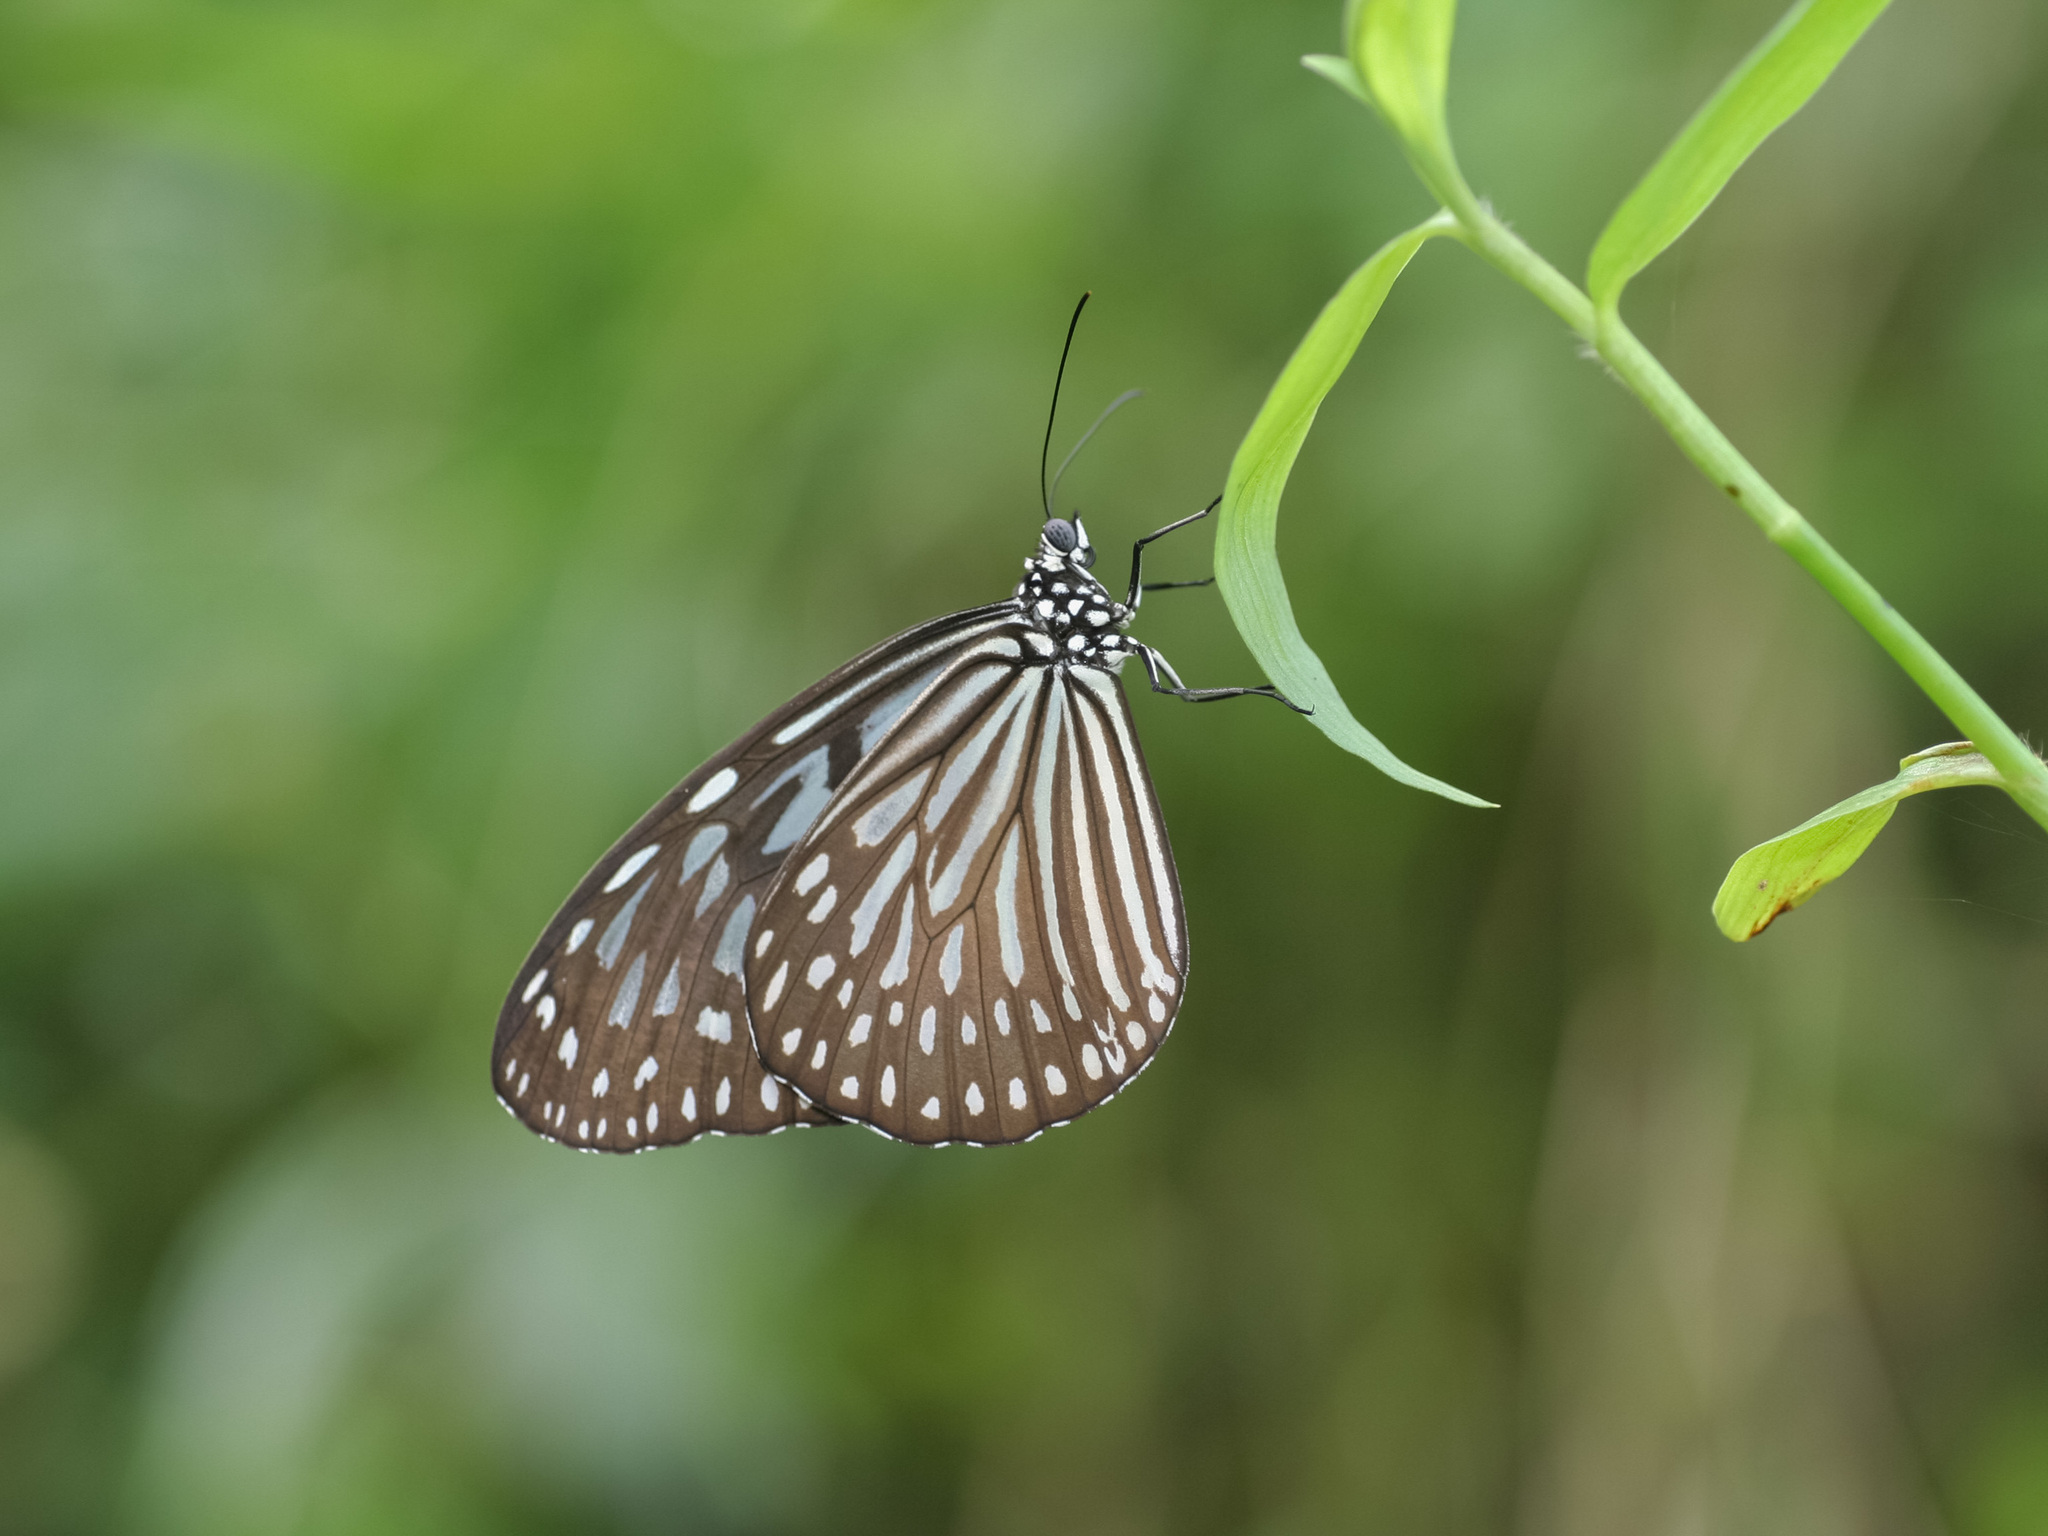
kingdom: Animalia
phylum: Arthropoda
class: Insecta
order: Lepidoptera
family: Nymphalidae
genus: Ideopsis
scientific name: Ideopsis vulgaris
